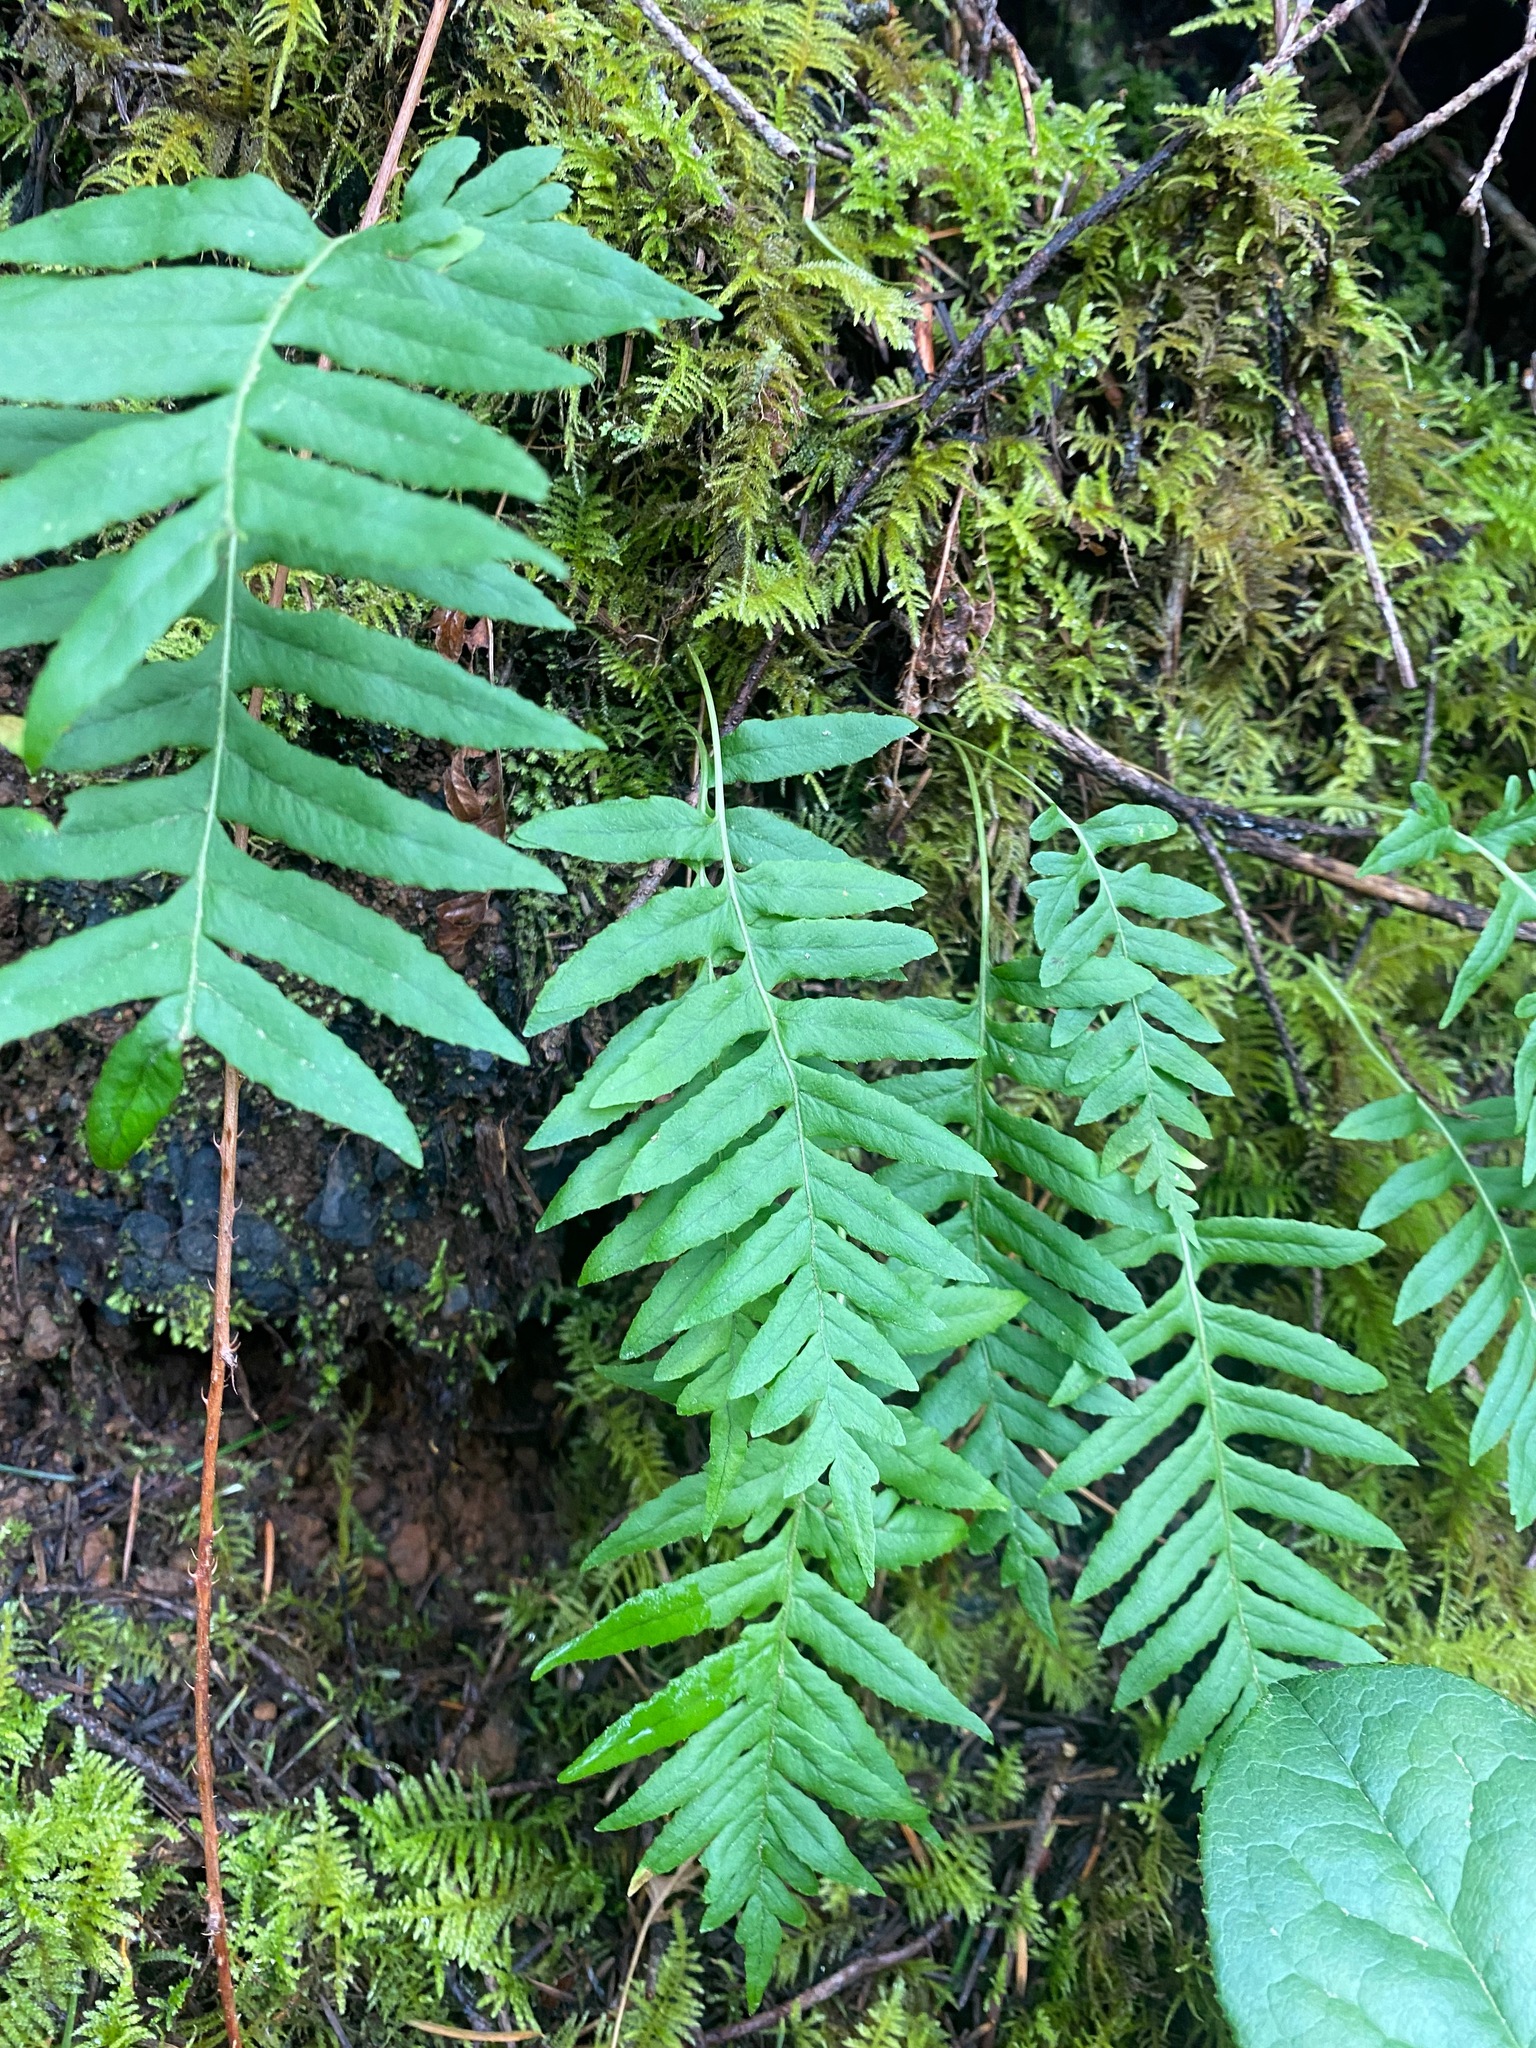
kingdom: Plantae
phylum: Tracheophyta
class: Polypodiopsida
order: Polypodiales
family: Polypodiaceae
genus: Polypodium
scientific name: Polypodium glycyrrhiza
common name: Licorice fern
